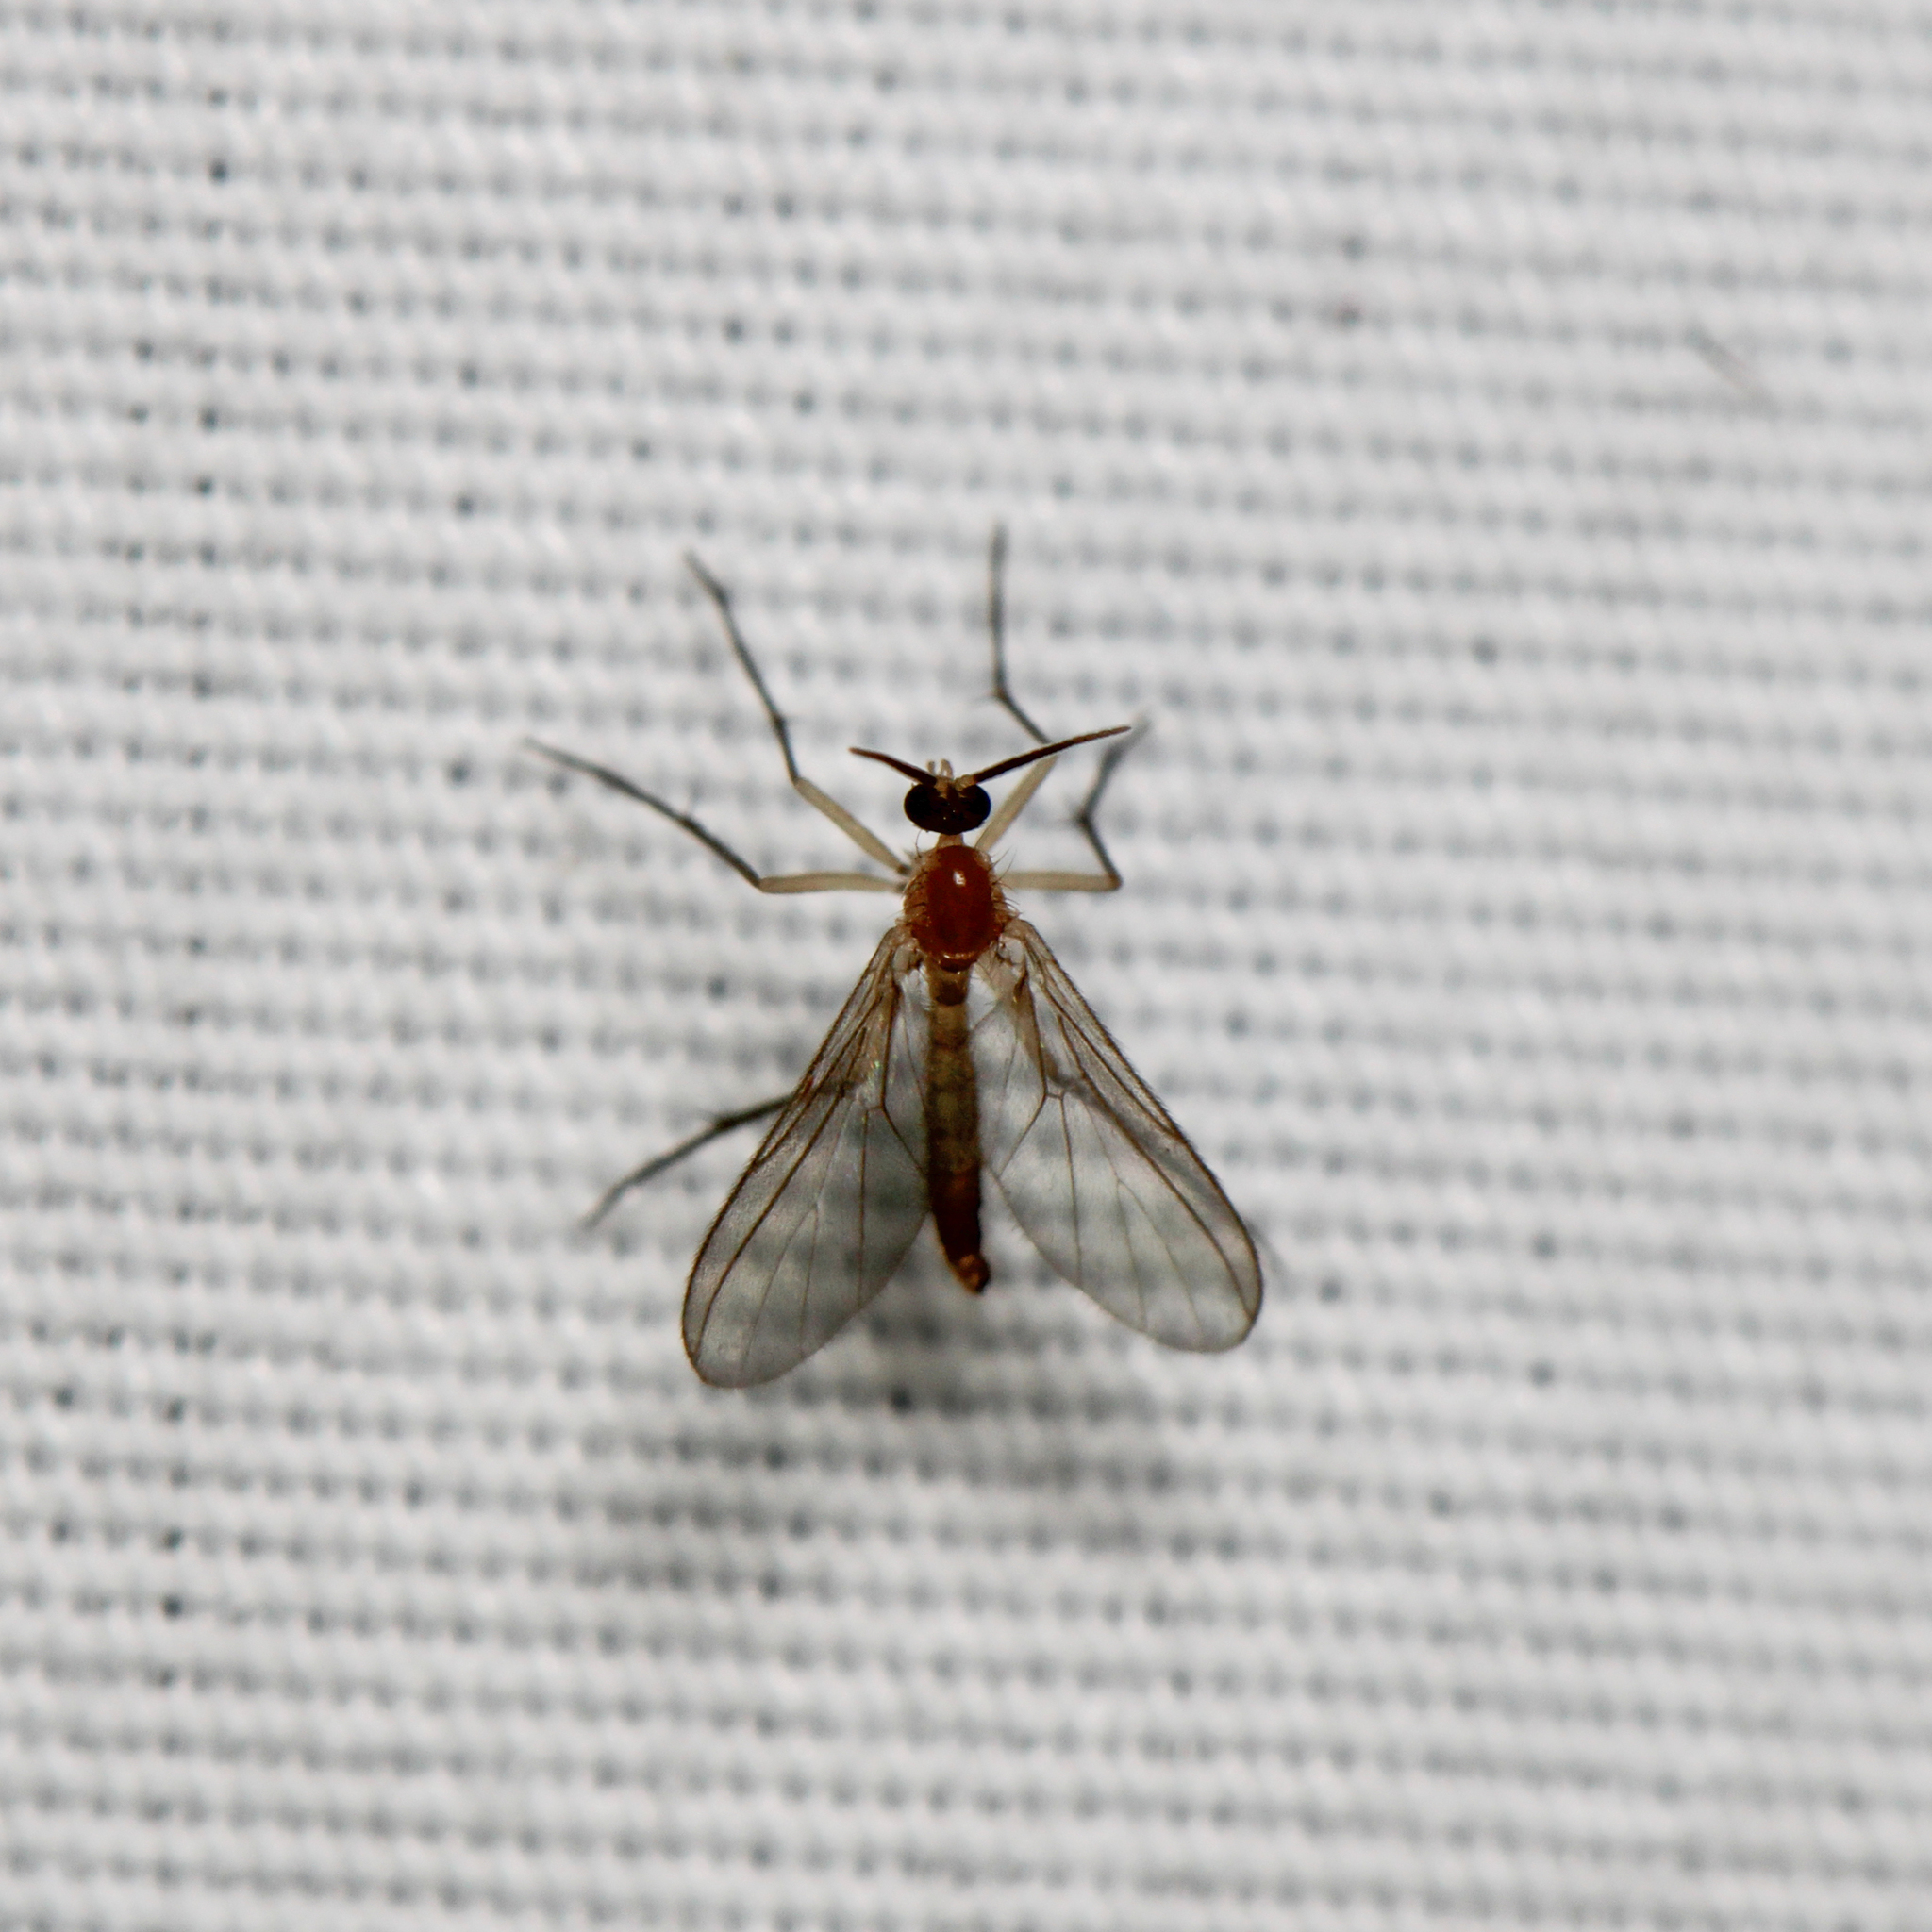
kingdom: Animalia
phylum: Arthropoda
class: Insecta
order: Diptera
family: Diadocidiidae
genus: Diadocidia
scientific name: Diadocidia ferruginosa
